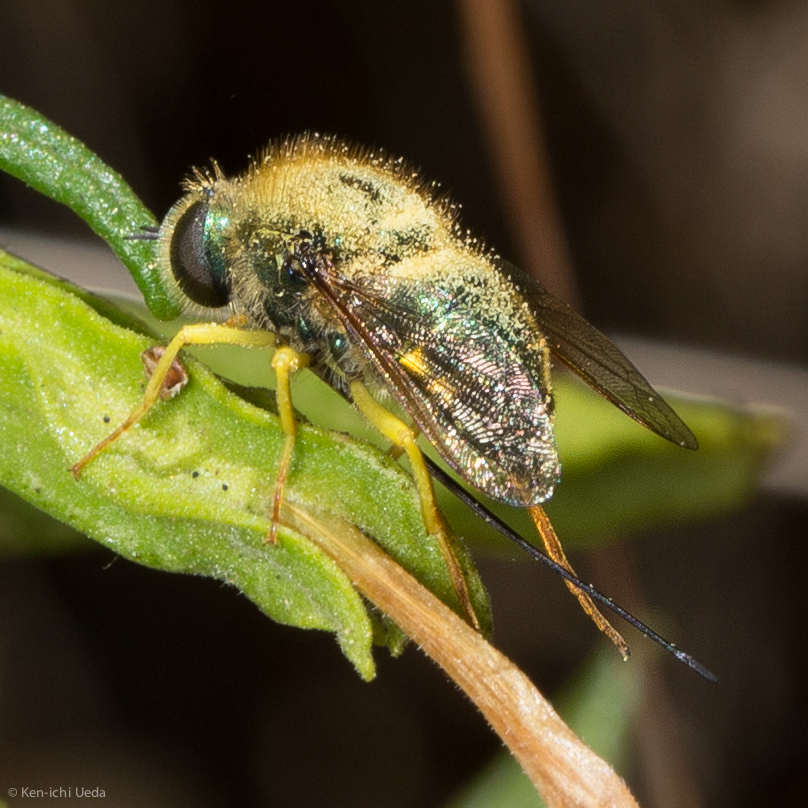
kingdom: Animalia
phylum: Arthropoda
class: Insecta
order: Diptera
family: Acroceridae
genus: Eulonchus
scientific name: Eulonchus smaragdinus
